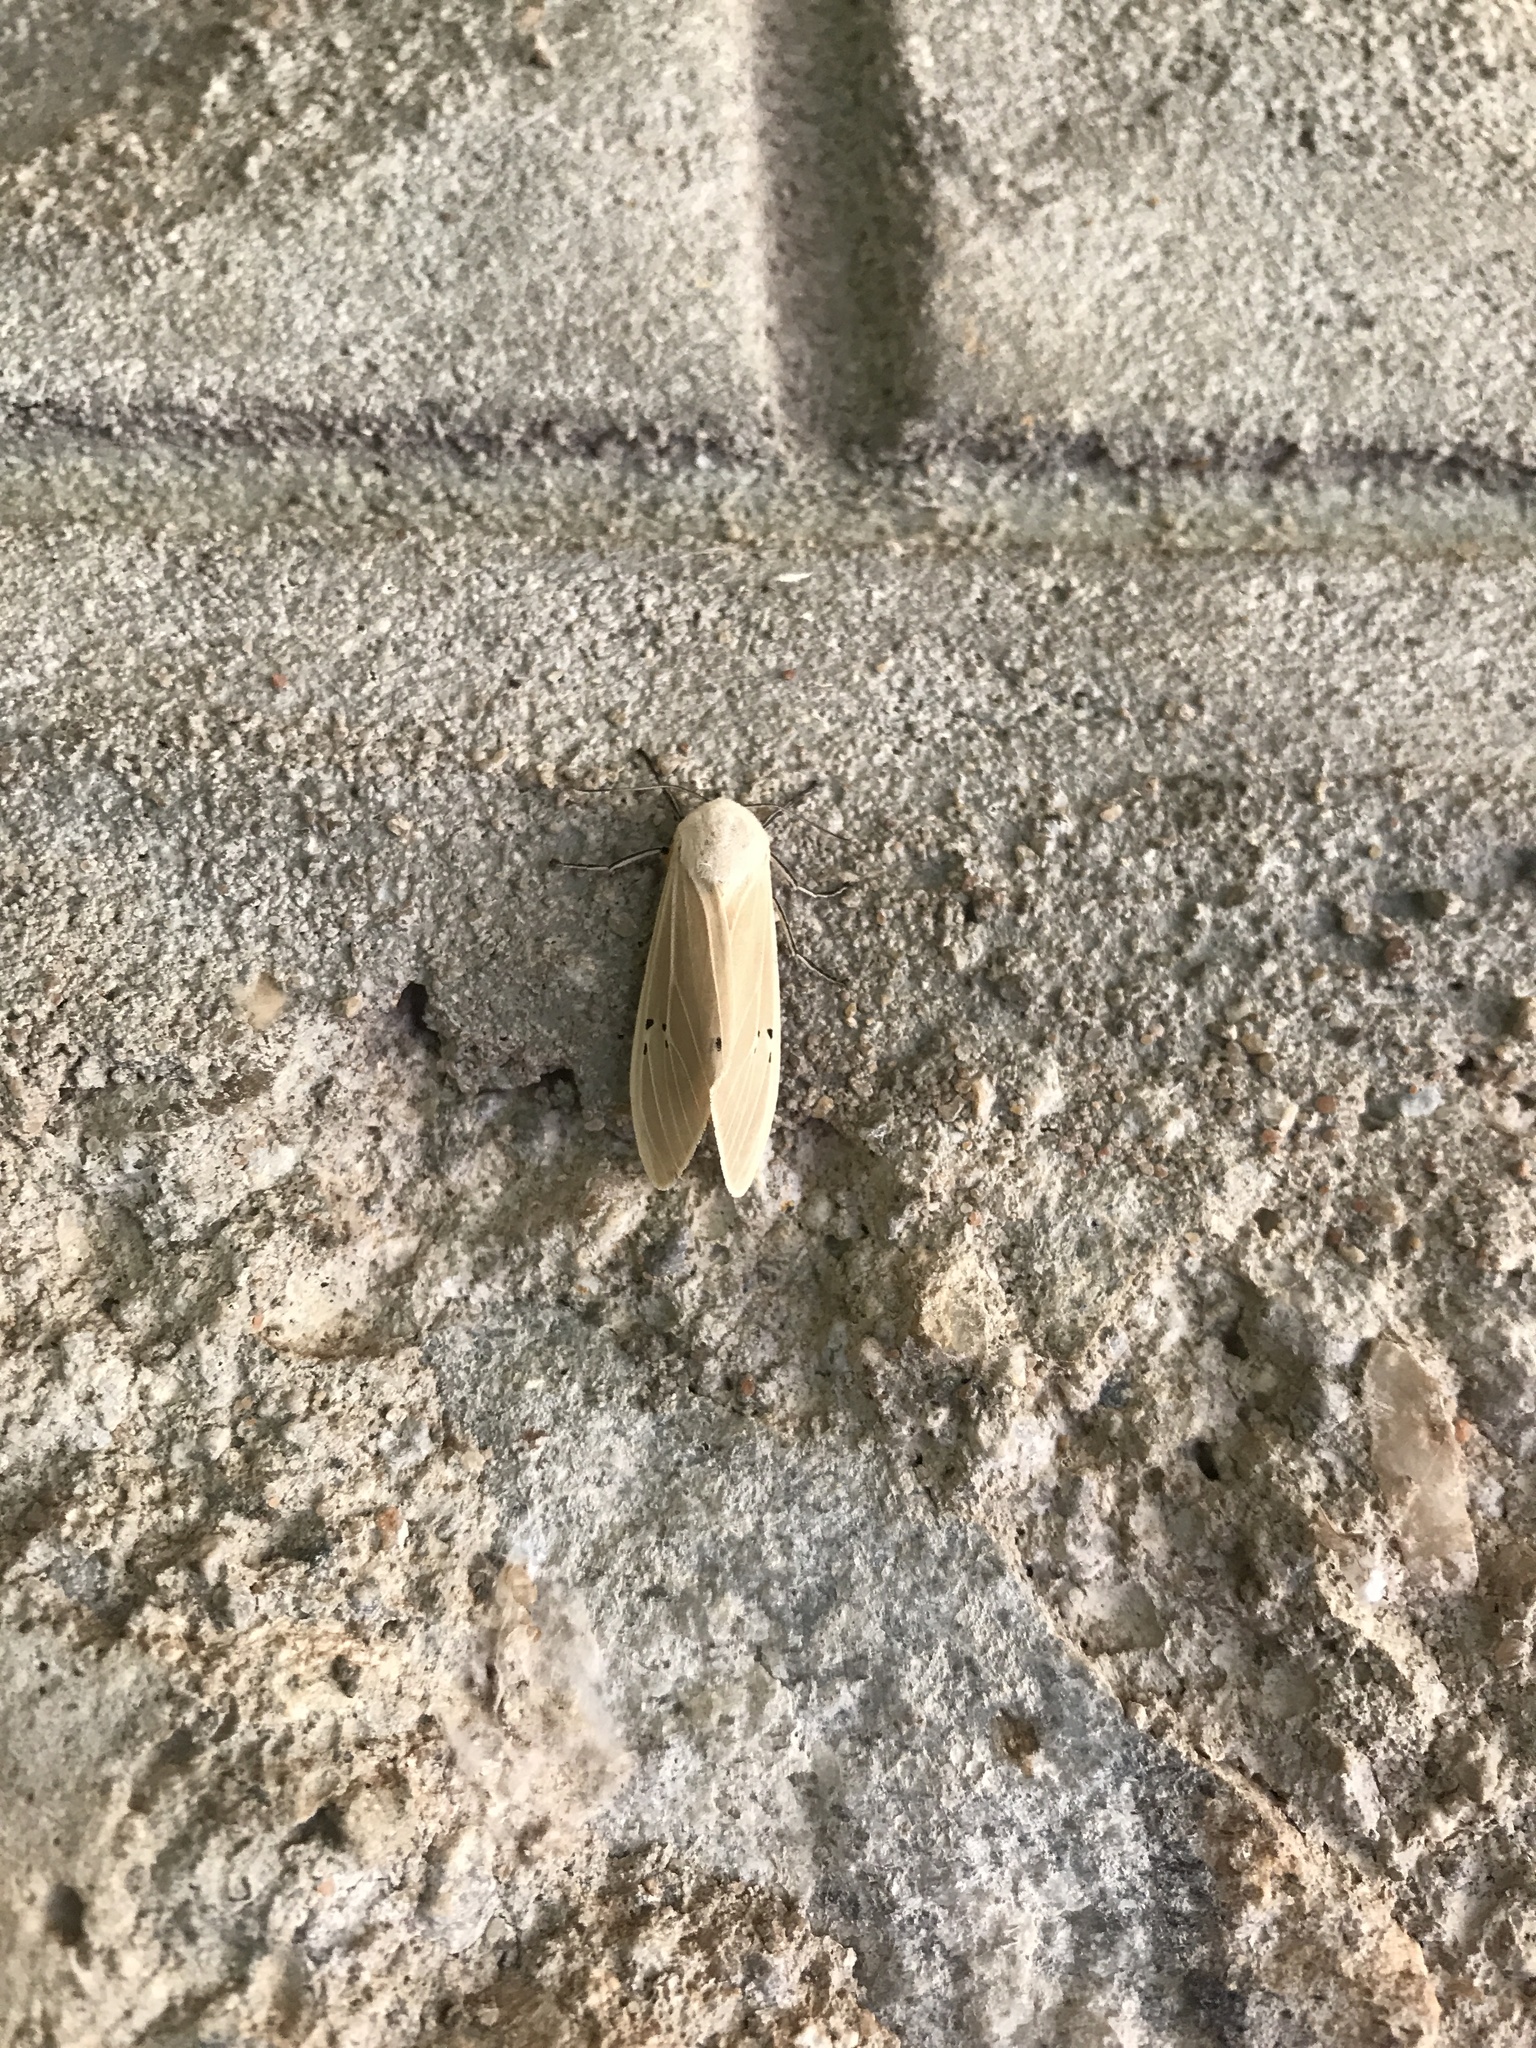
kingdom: Animalia
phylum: Arthropoda
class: Insecta
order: Lepidoptera
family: Erebidae
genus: Creatonotos
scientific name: Creatonotos transiens
